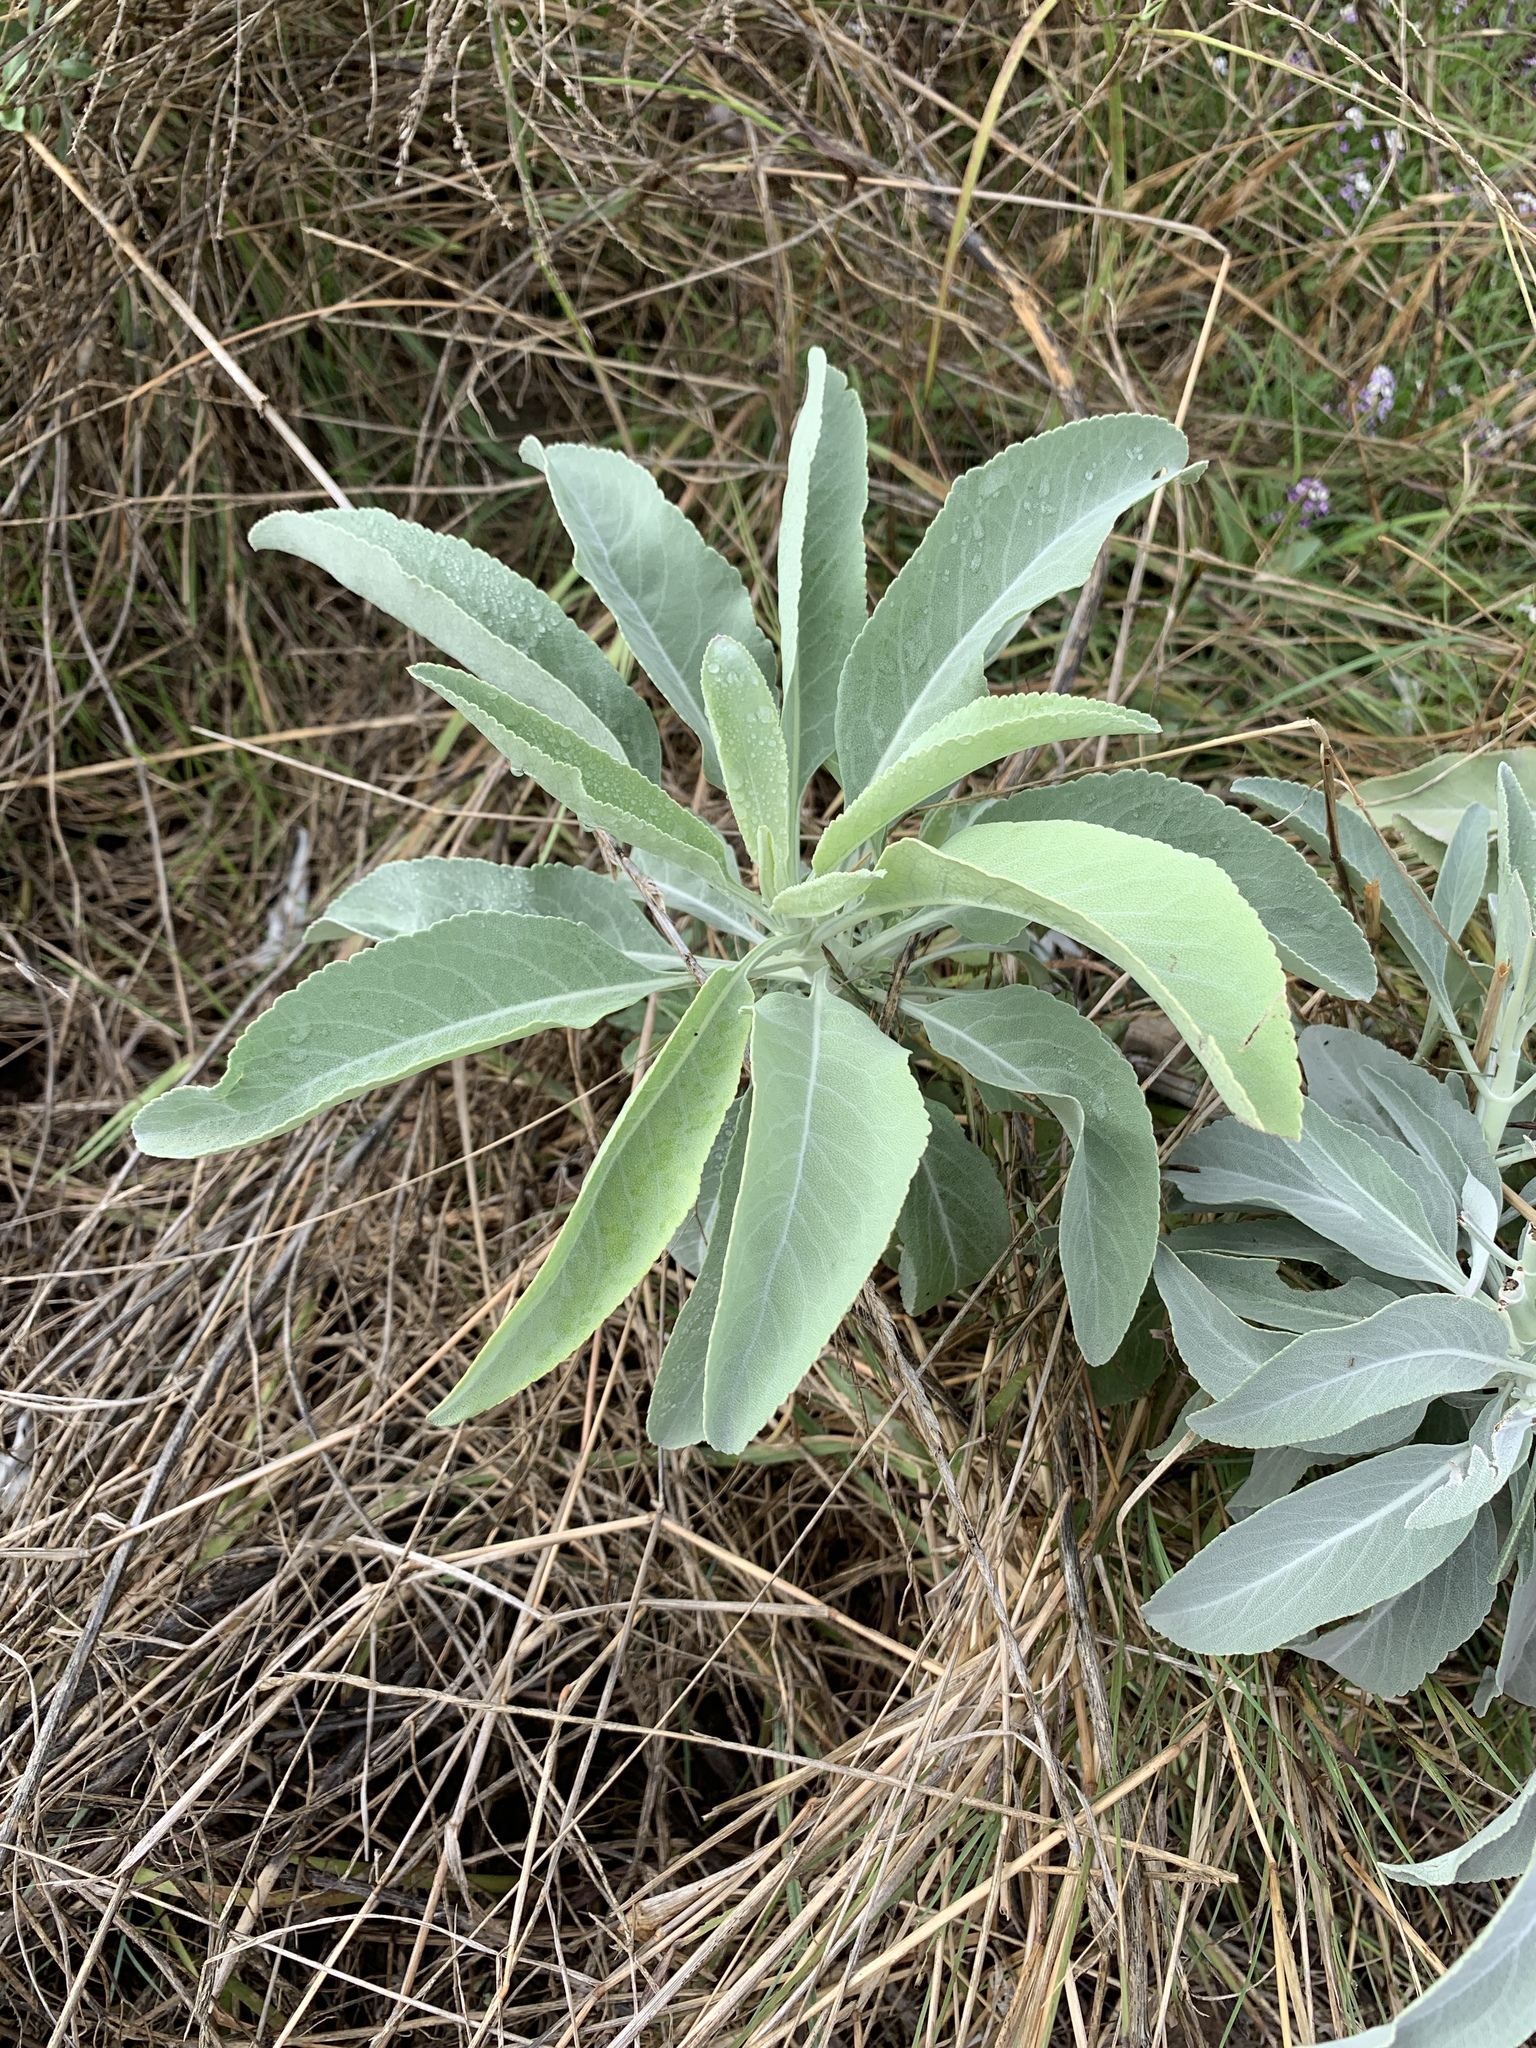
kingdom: Plantae
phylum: Tracheophyta
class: Magnoliopsida
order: Lamiales
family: Lamiaceae
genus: Salvia
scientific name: Salvia apiana
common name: White sage
